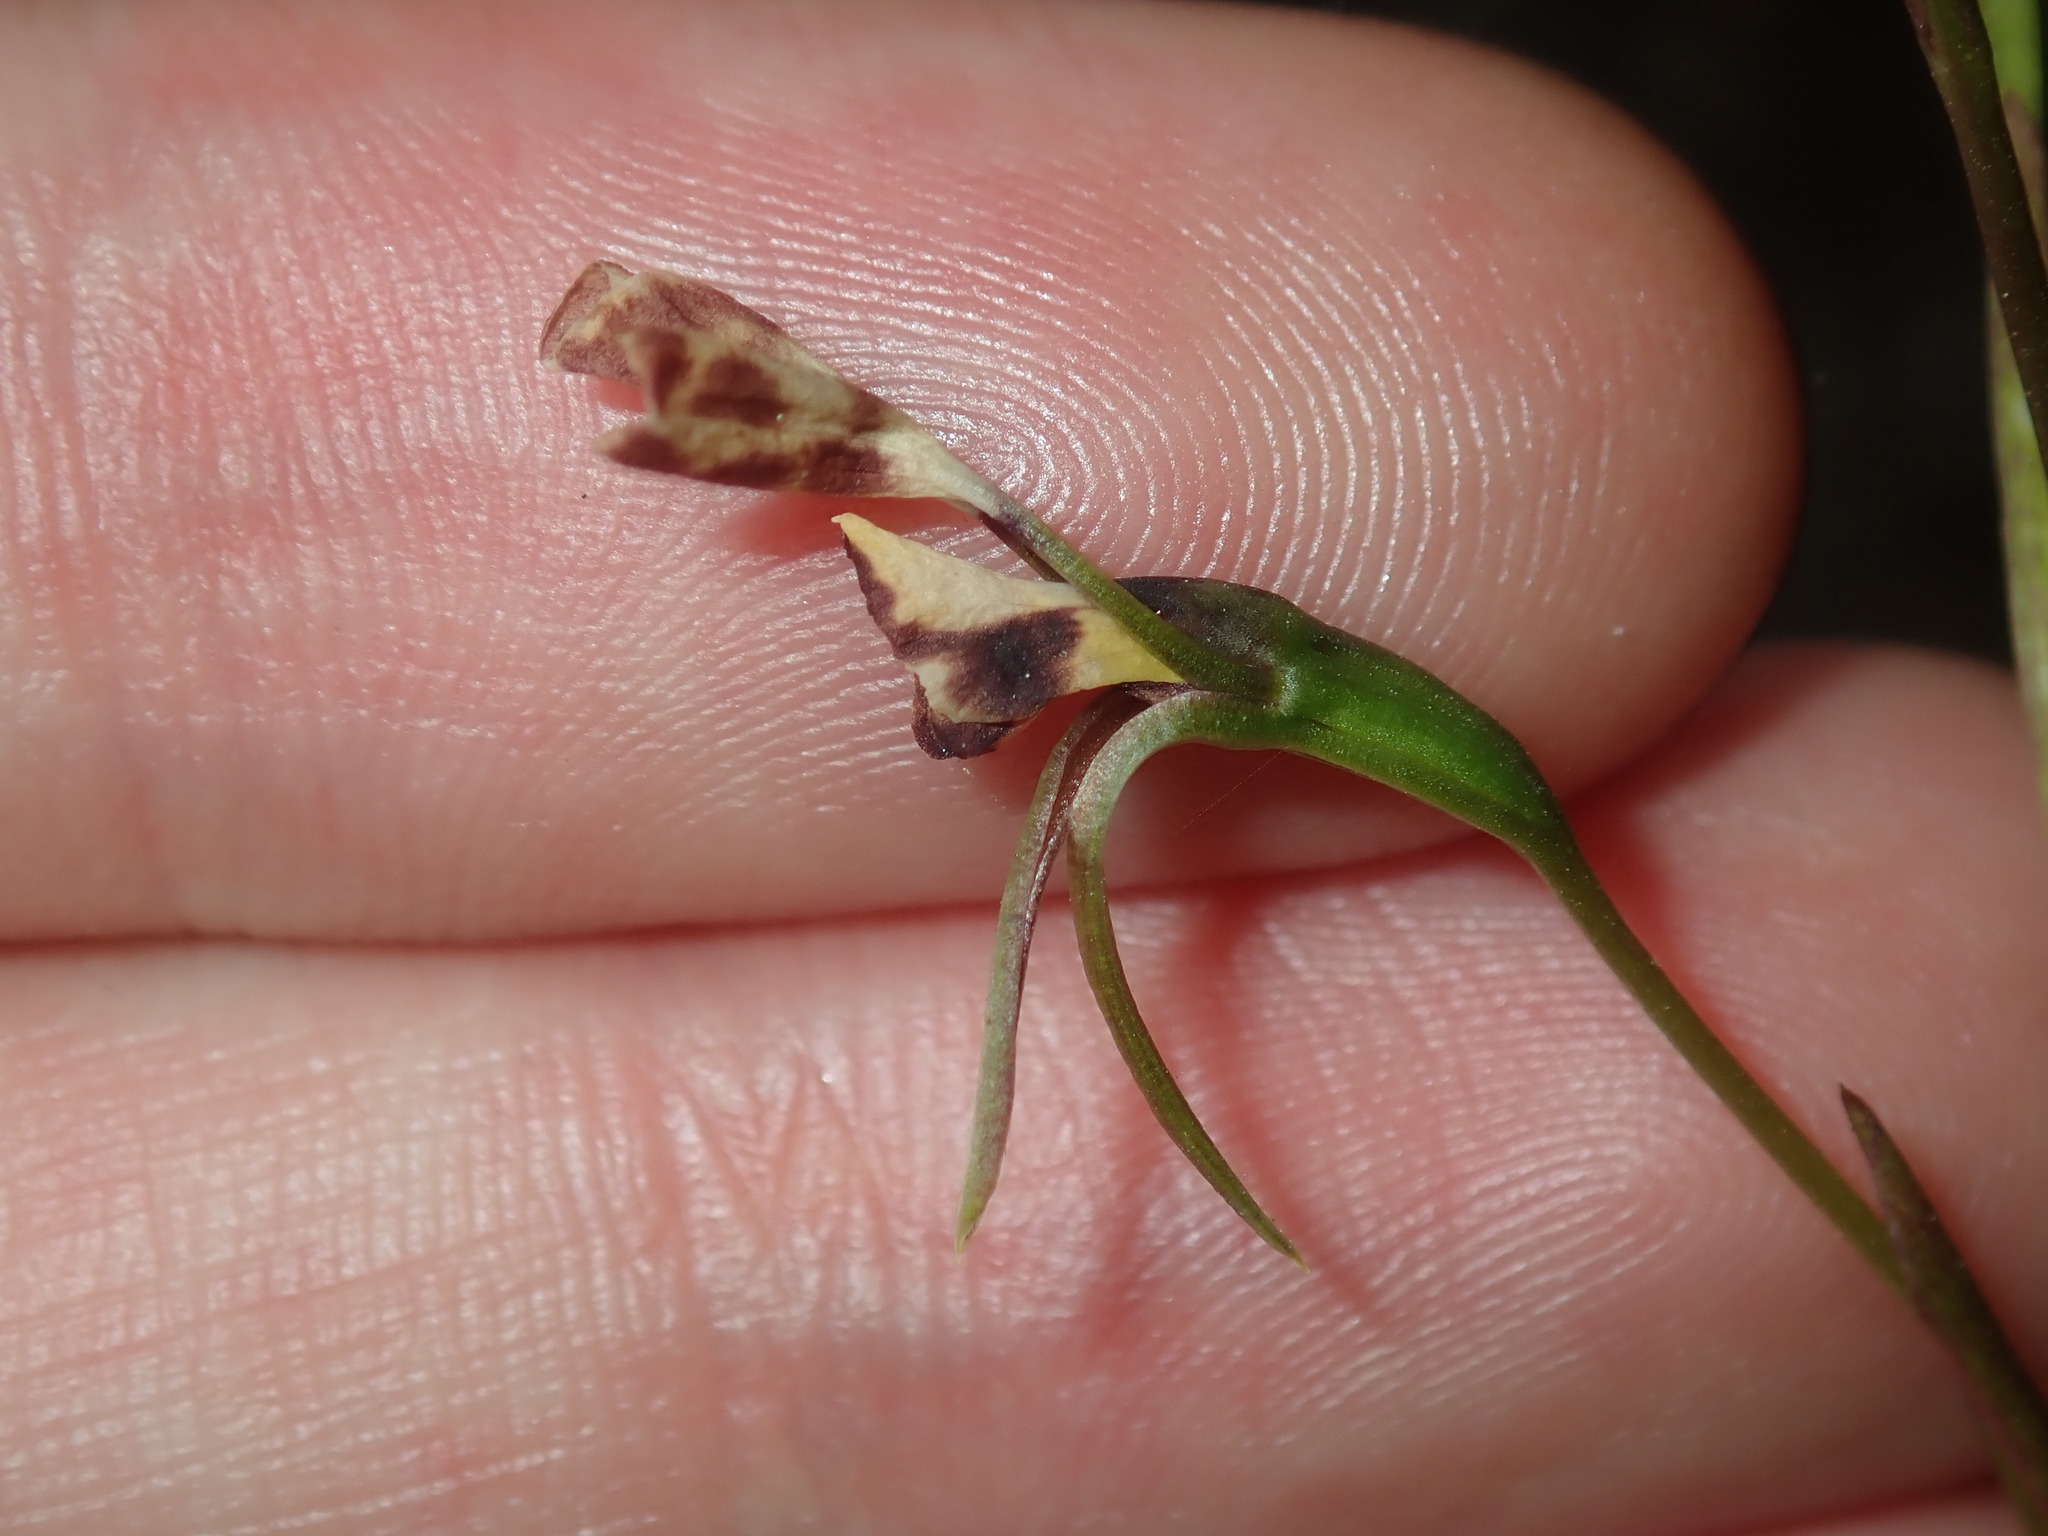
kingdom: Plantae
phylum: Tracheophyta
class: Liliopsida
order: Asparagales
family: Orchidaceae
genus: Diuris
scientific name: Diuris maculata
